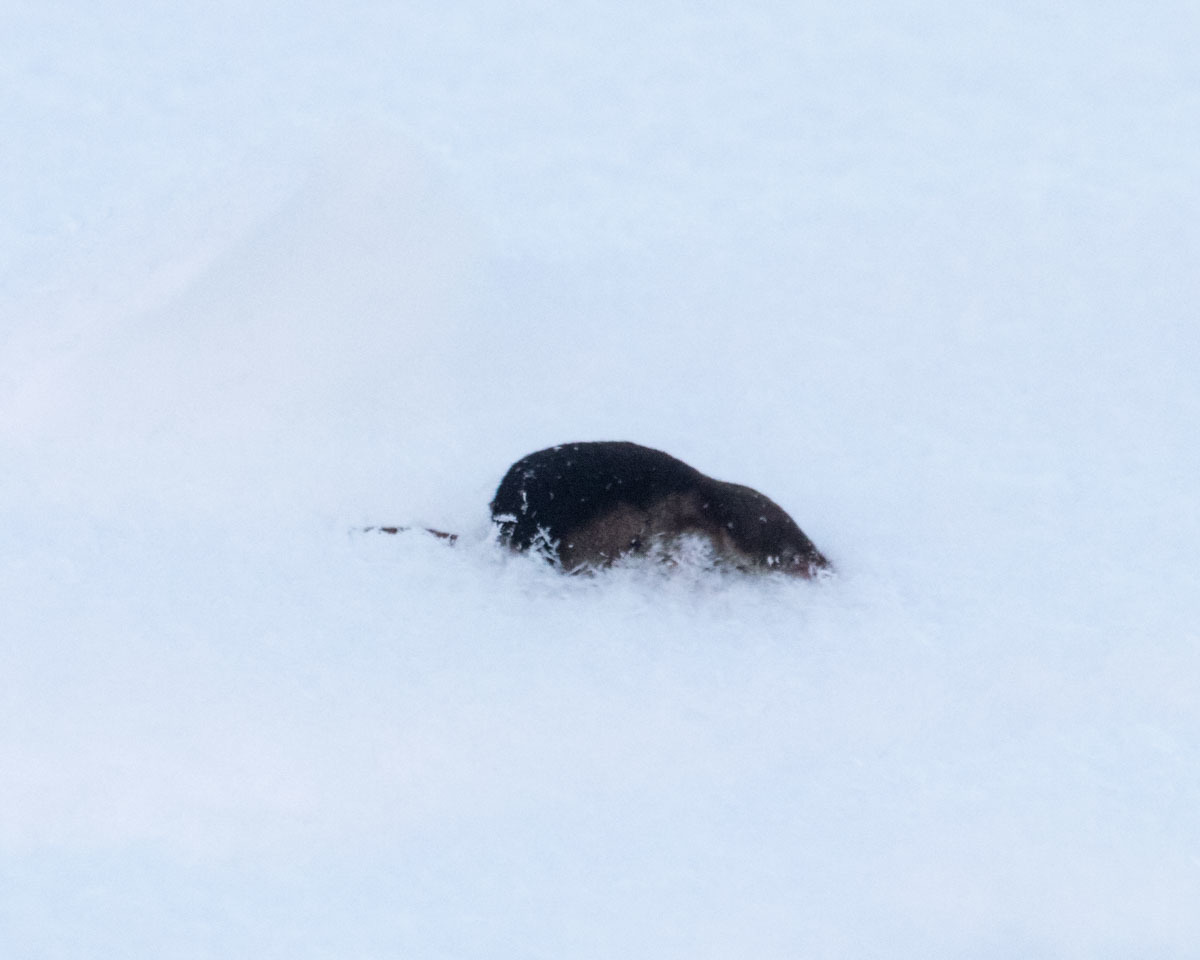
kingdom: Animalia
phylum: Chordata
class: Mammalia
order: Soricomorpha
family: Soricidae
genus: Sorex
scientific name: Sorex araneus
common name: Common shrew
